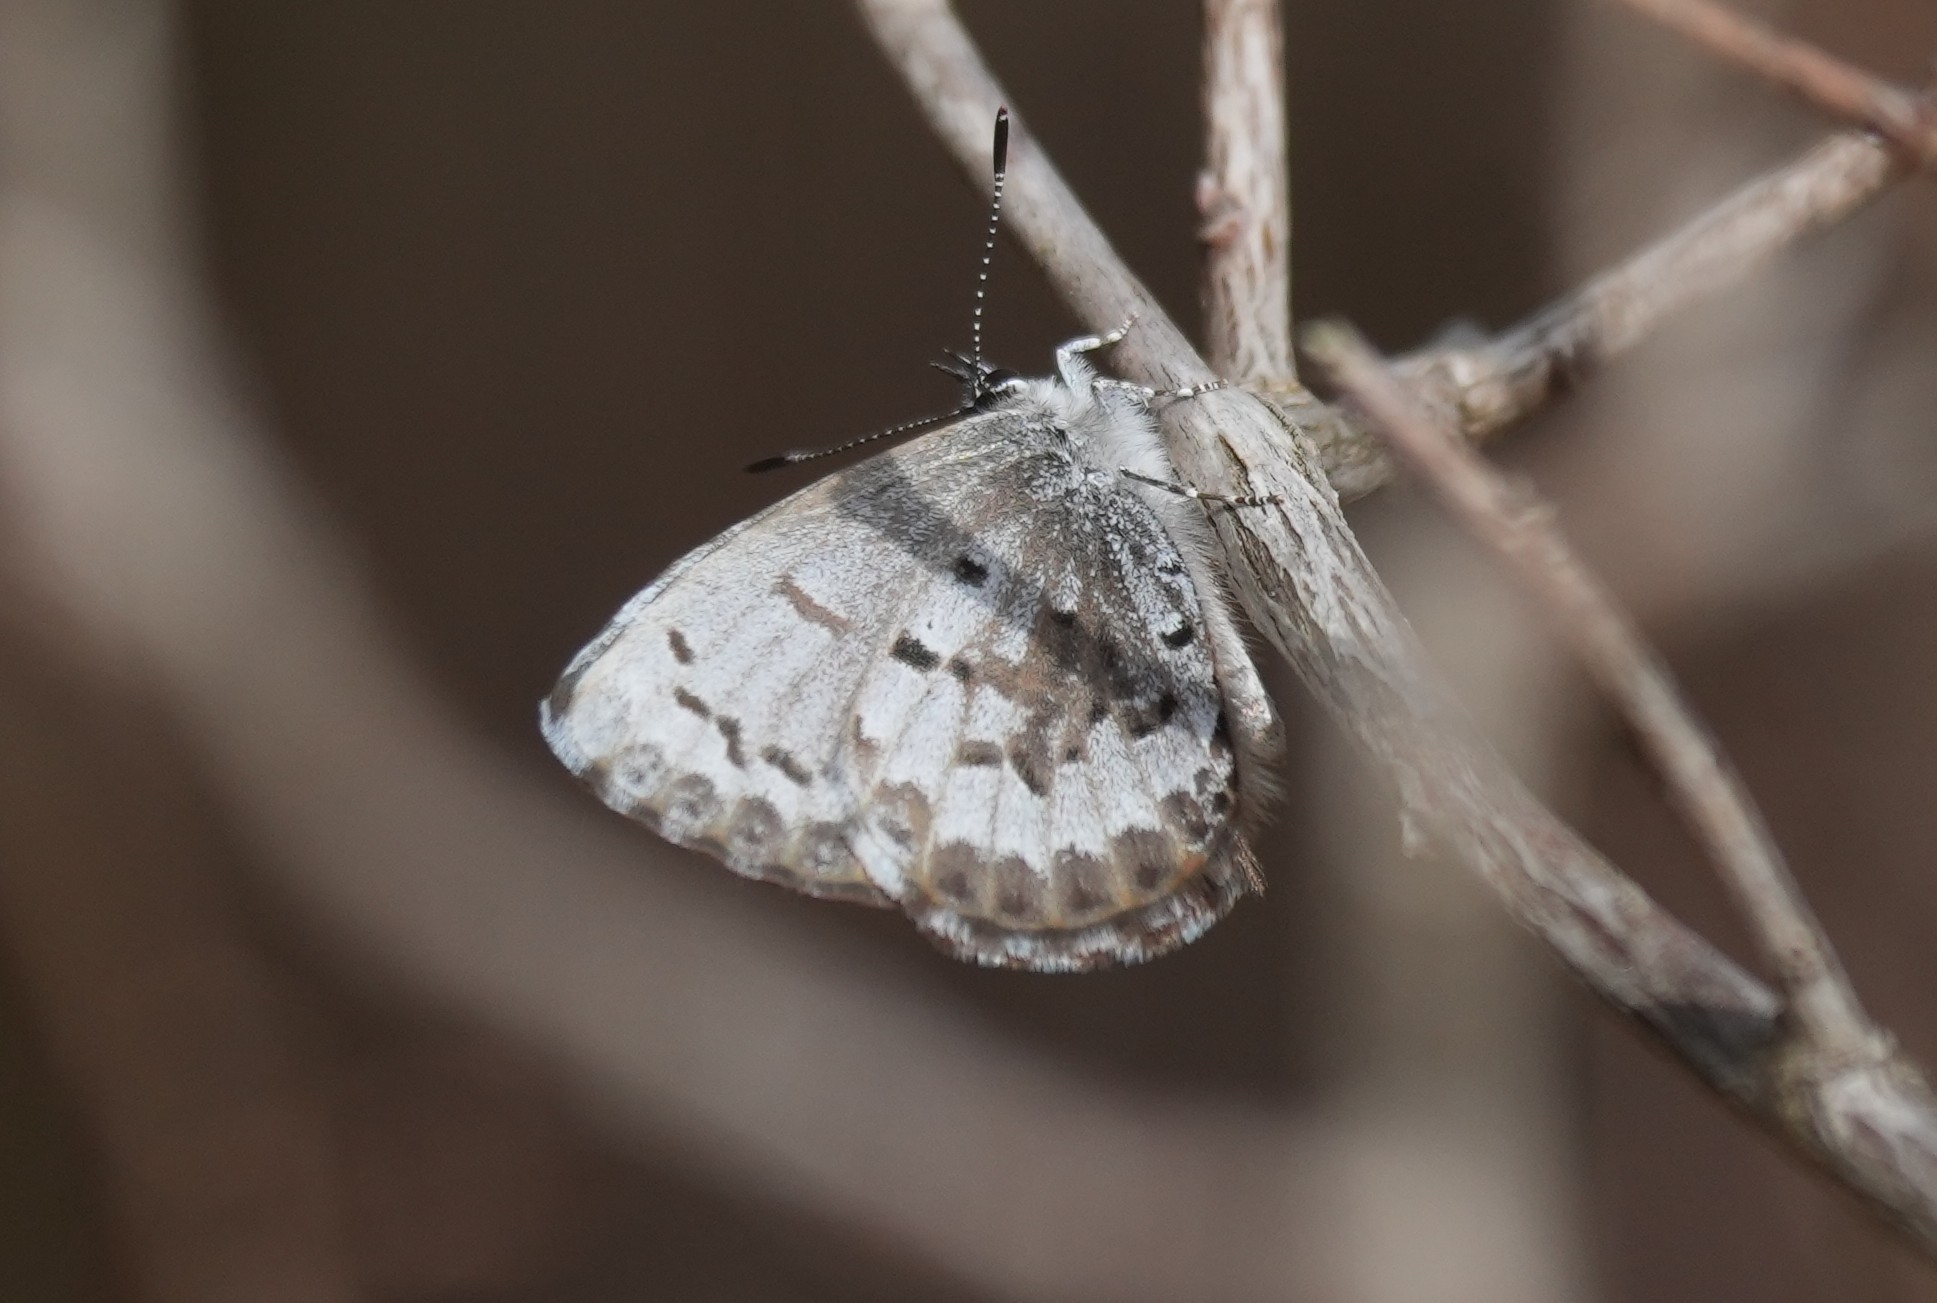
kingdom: Animalia
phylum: Arthropoda
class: Insecta
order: Lepidoptera
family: Lycaenidae
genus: Celastrina
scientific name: Celastrina ladon
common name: Spring azure
